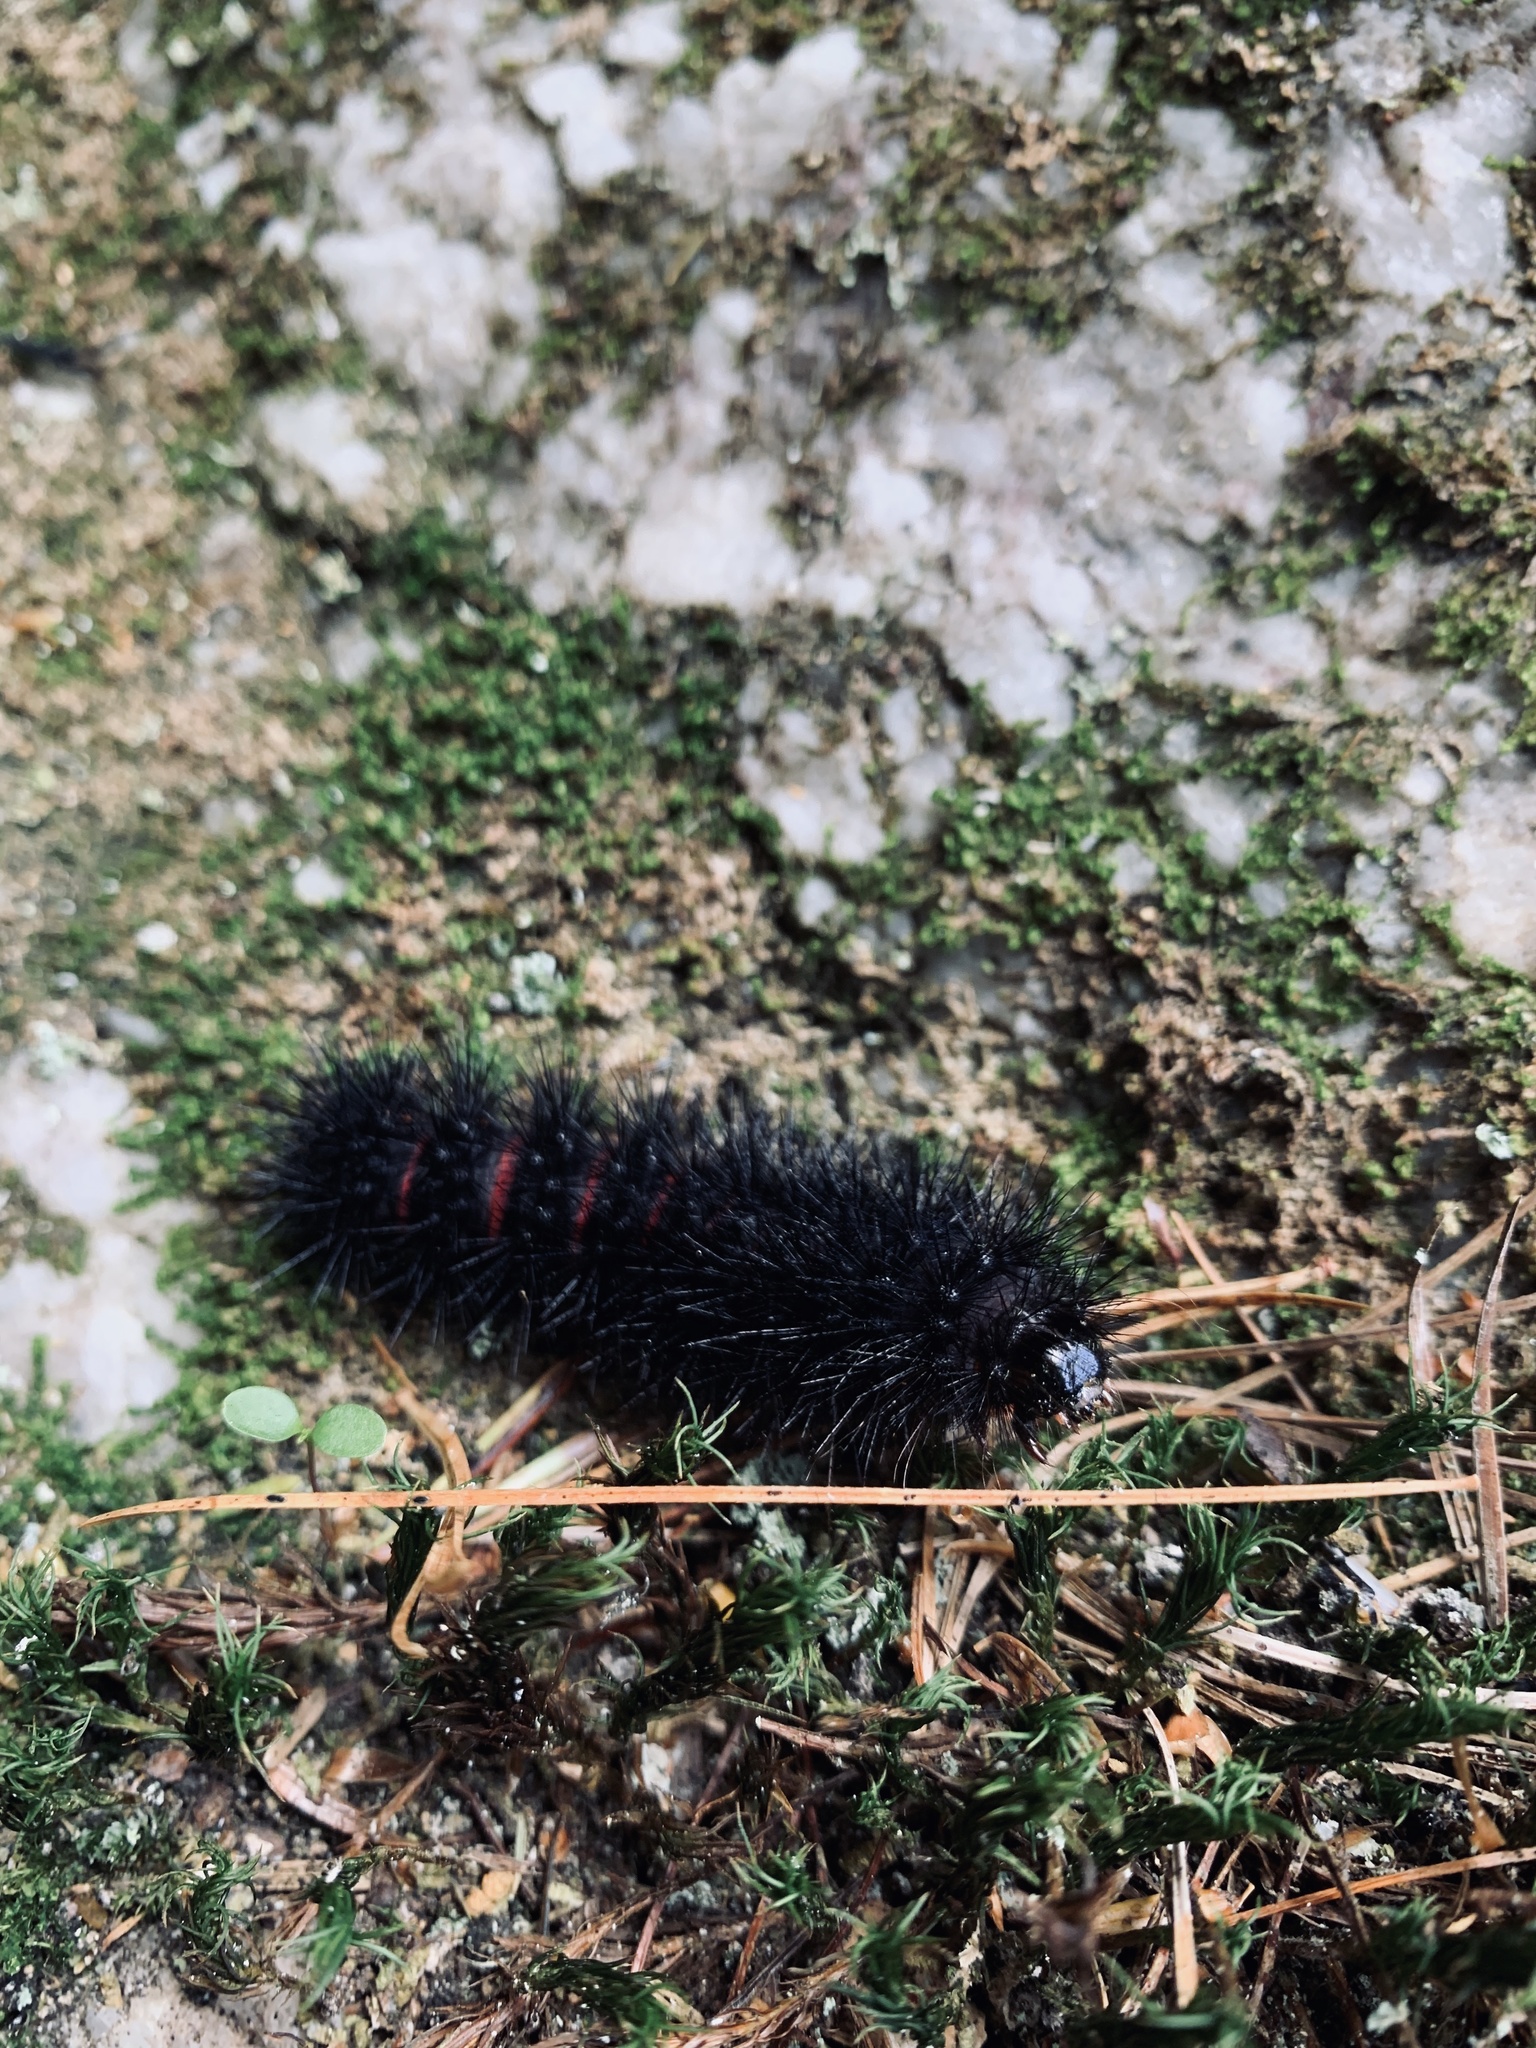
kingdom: Animalia
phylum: Arthropoda
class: Insecta
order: Lepidoptera
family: Erebidae
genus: Hypercompe
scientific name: Hypercompe scribonia
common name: Giant leopard moth
